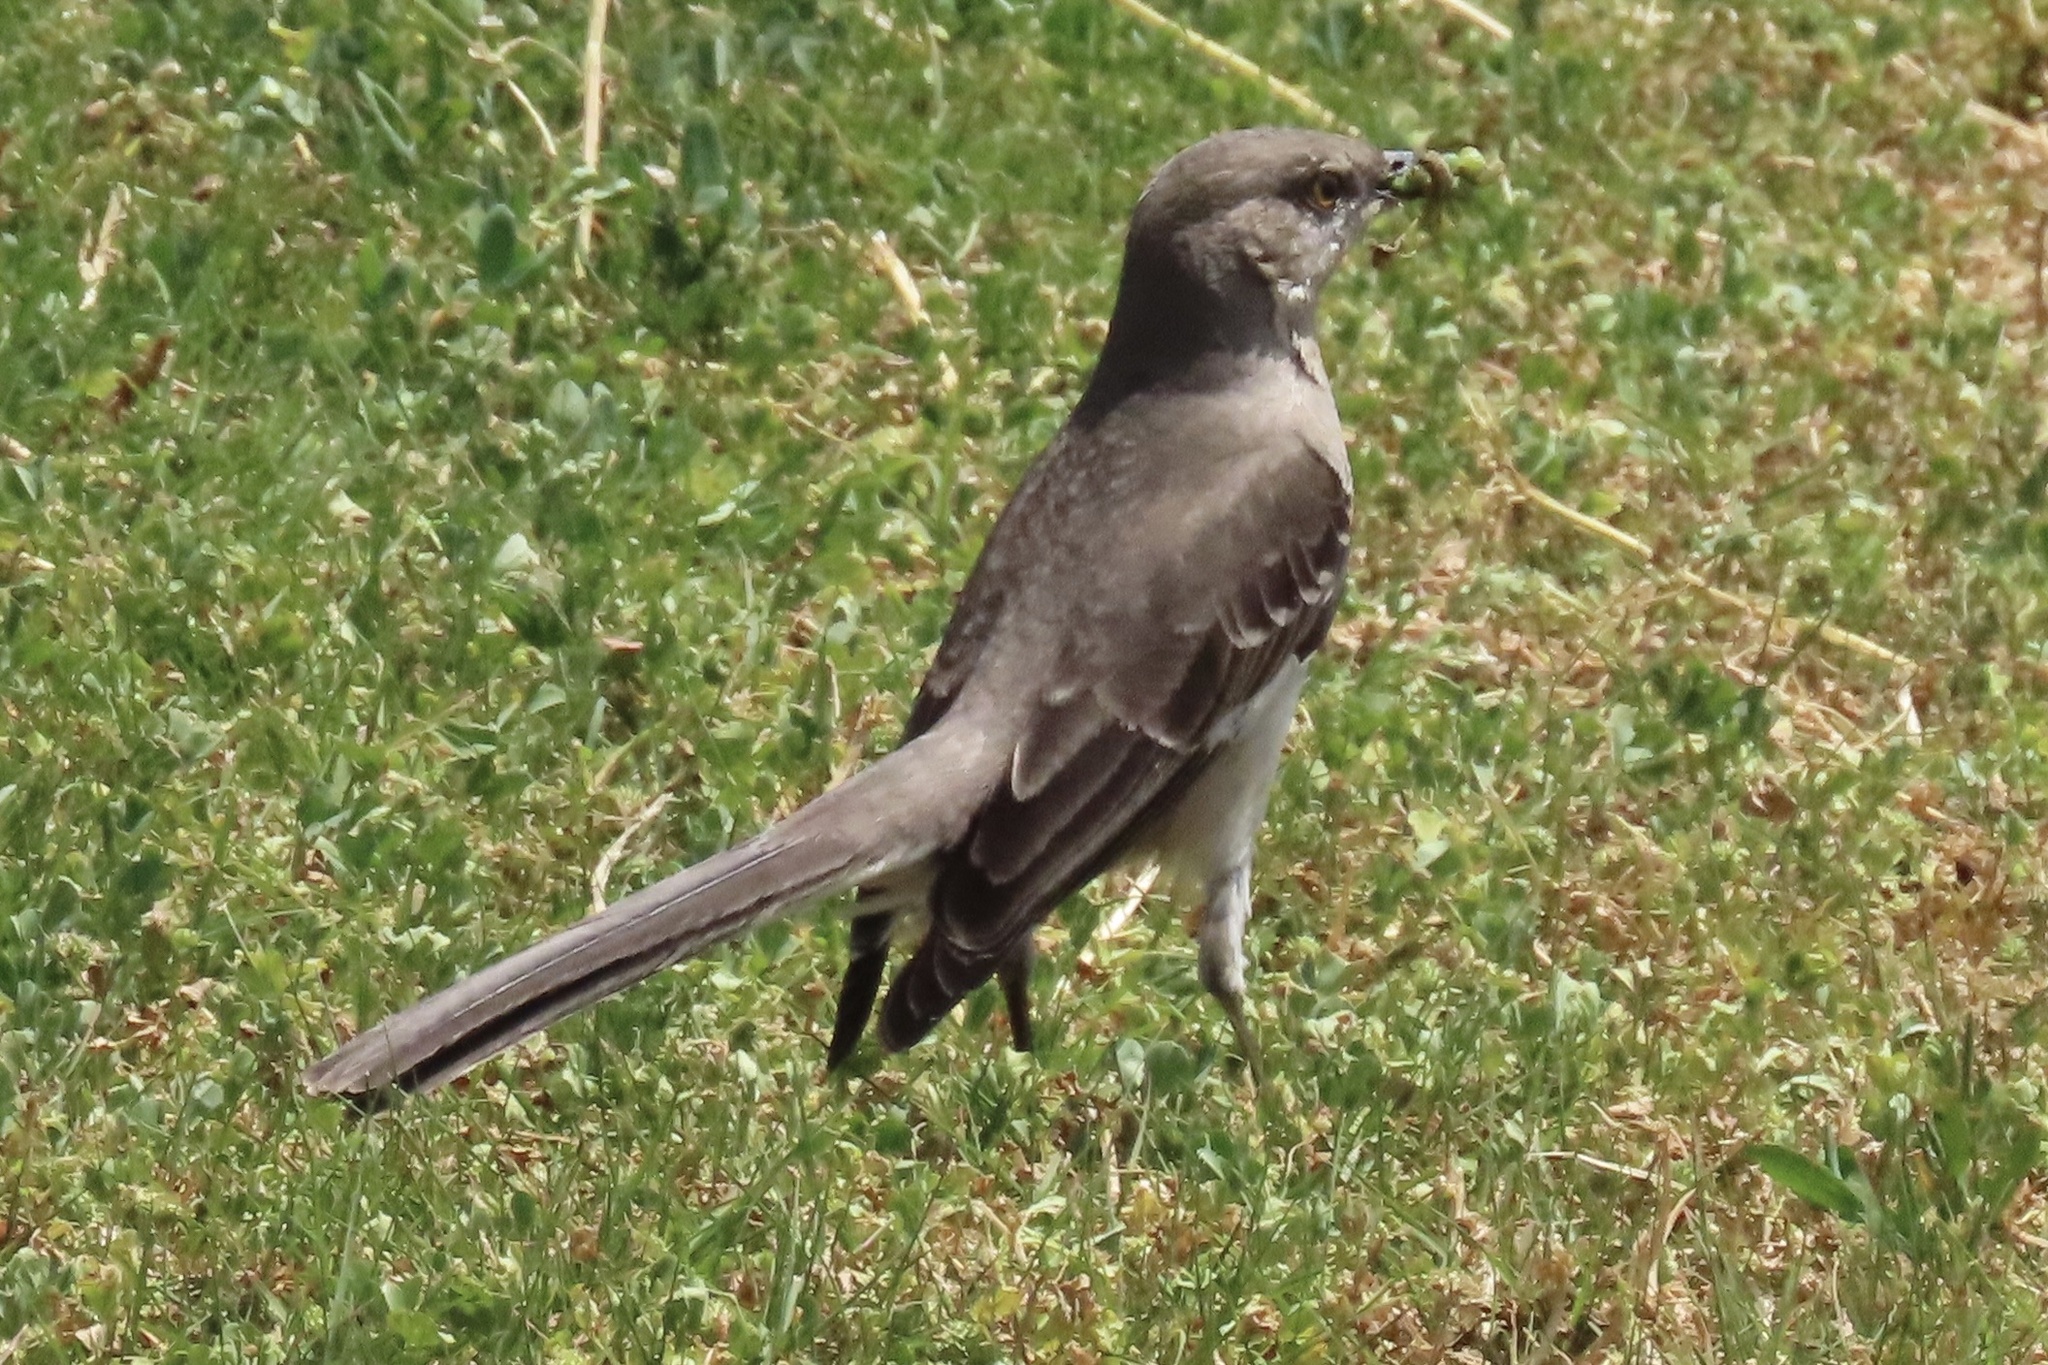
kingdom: Animalia
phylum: Chordata
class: Aves
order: Passeriformes
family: Mimidae
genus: Mimus
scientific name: Mimus polyglottos
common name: Northern mockingbird
